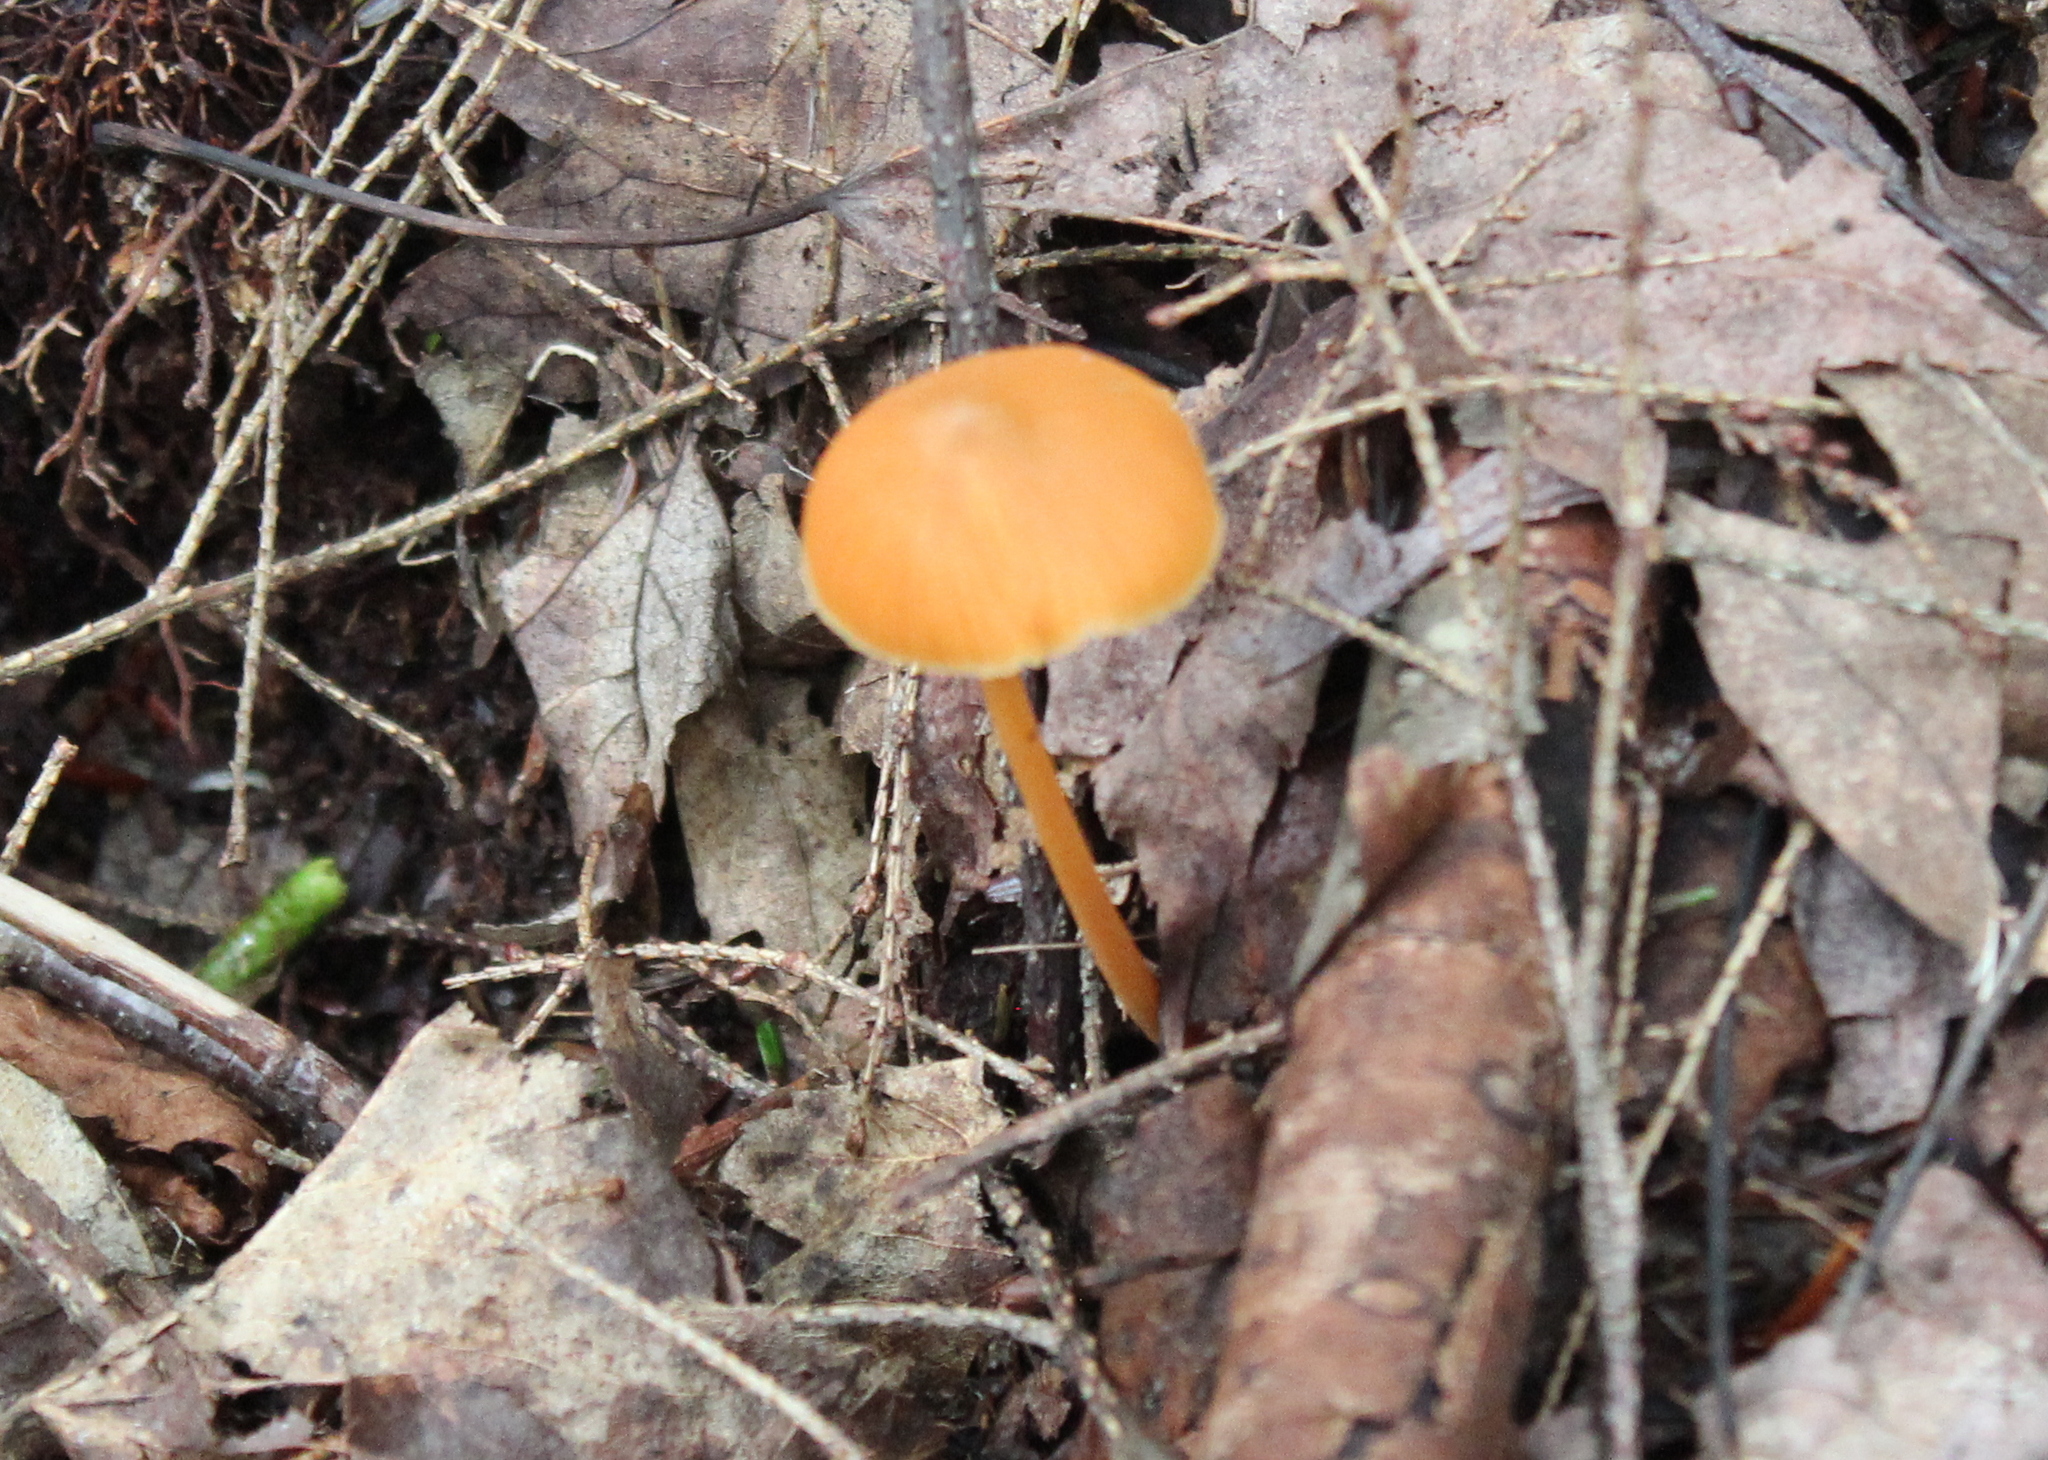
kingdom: Fungi
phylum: Basidiomycota
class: Agaricomycetes
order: Agaricales
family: Entolomataceae
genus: Entoloma
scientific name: Entoloma quadratum
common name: Salmon pinkgill
